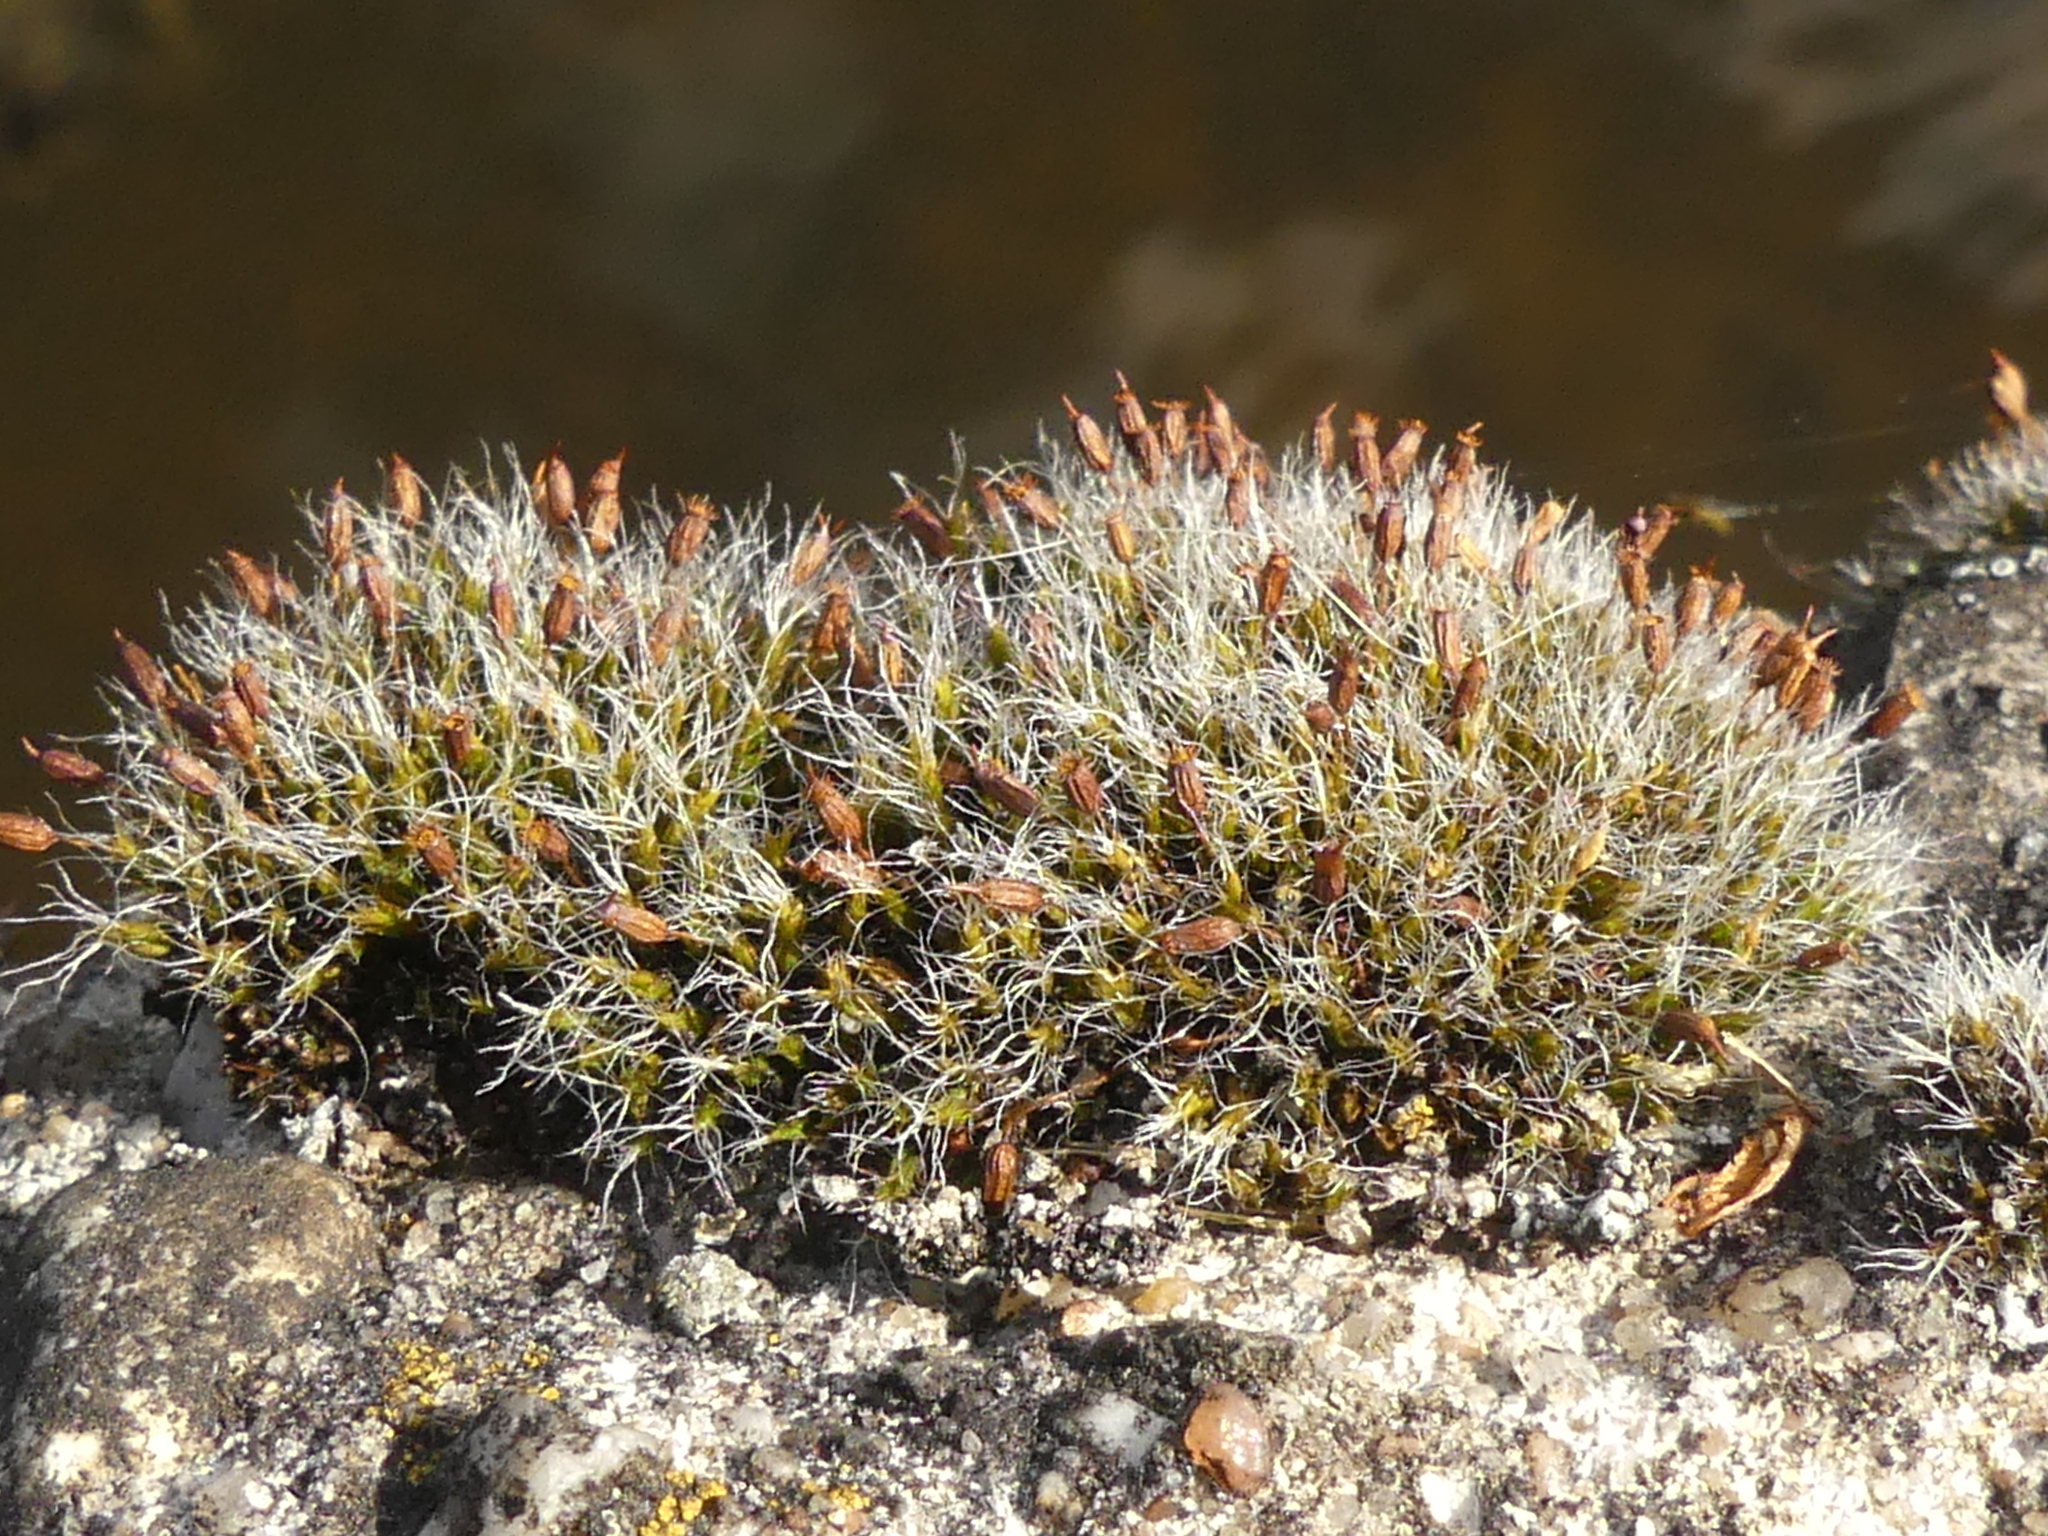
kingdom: Plantae
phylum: Bryophyta
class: Bryopsida
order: Grimmiales
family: Grimmiaceae
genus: Grimmia
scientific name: Grimmia pulvinata
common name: Grey-cushioned grimmia
